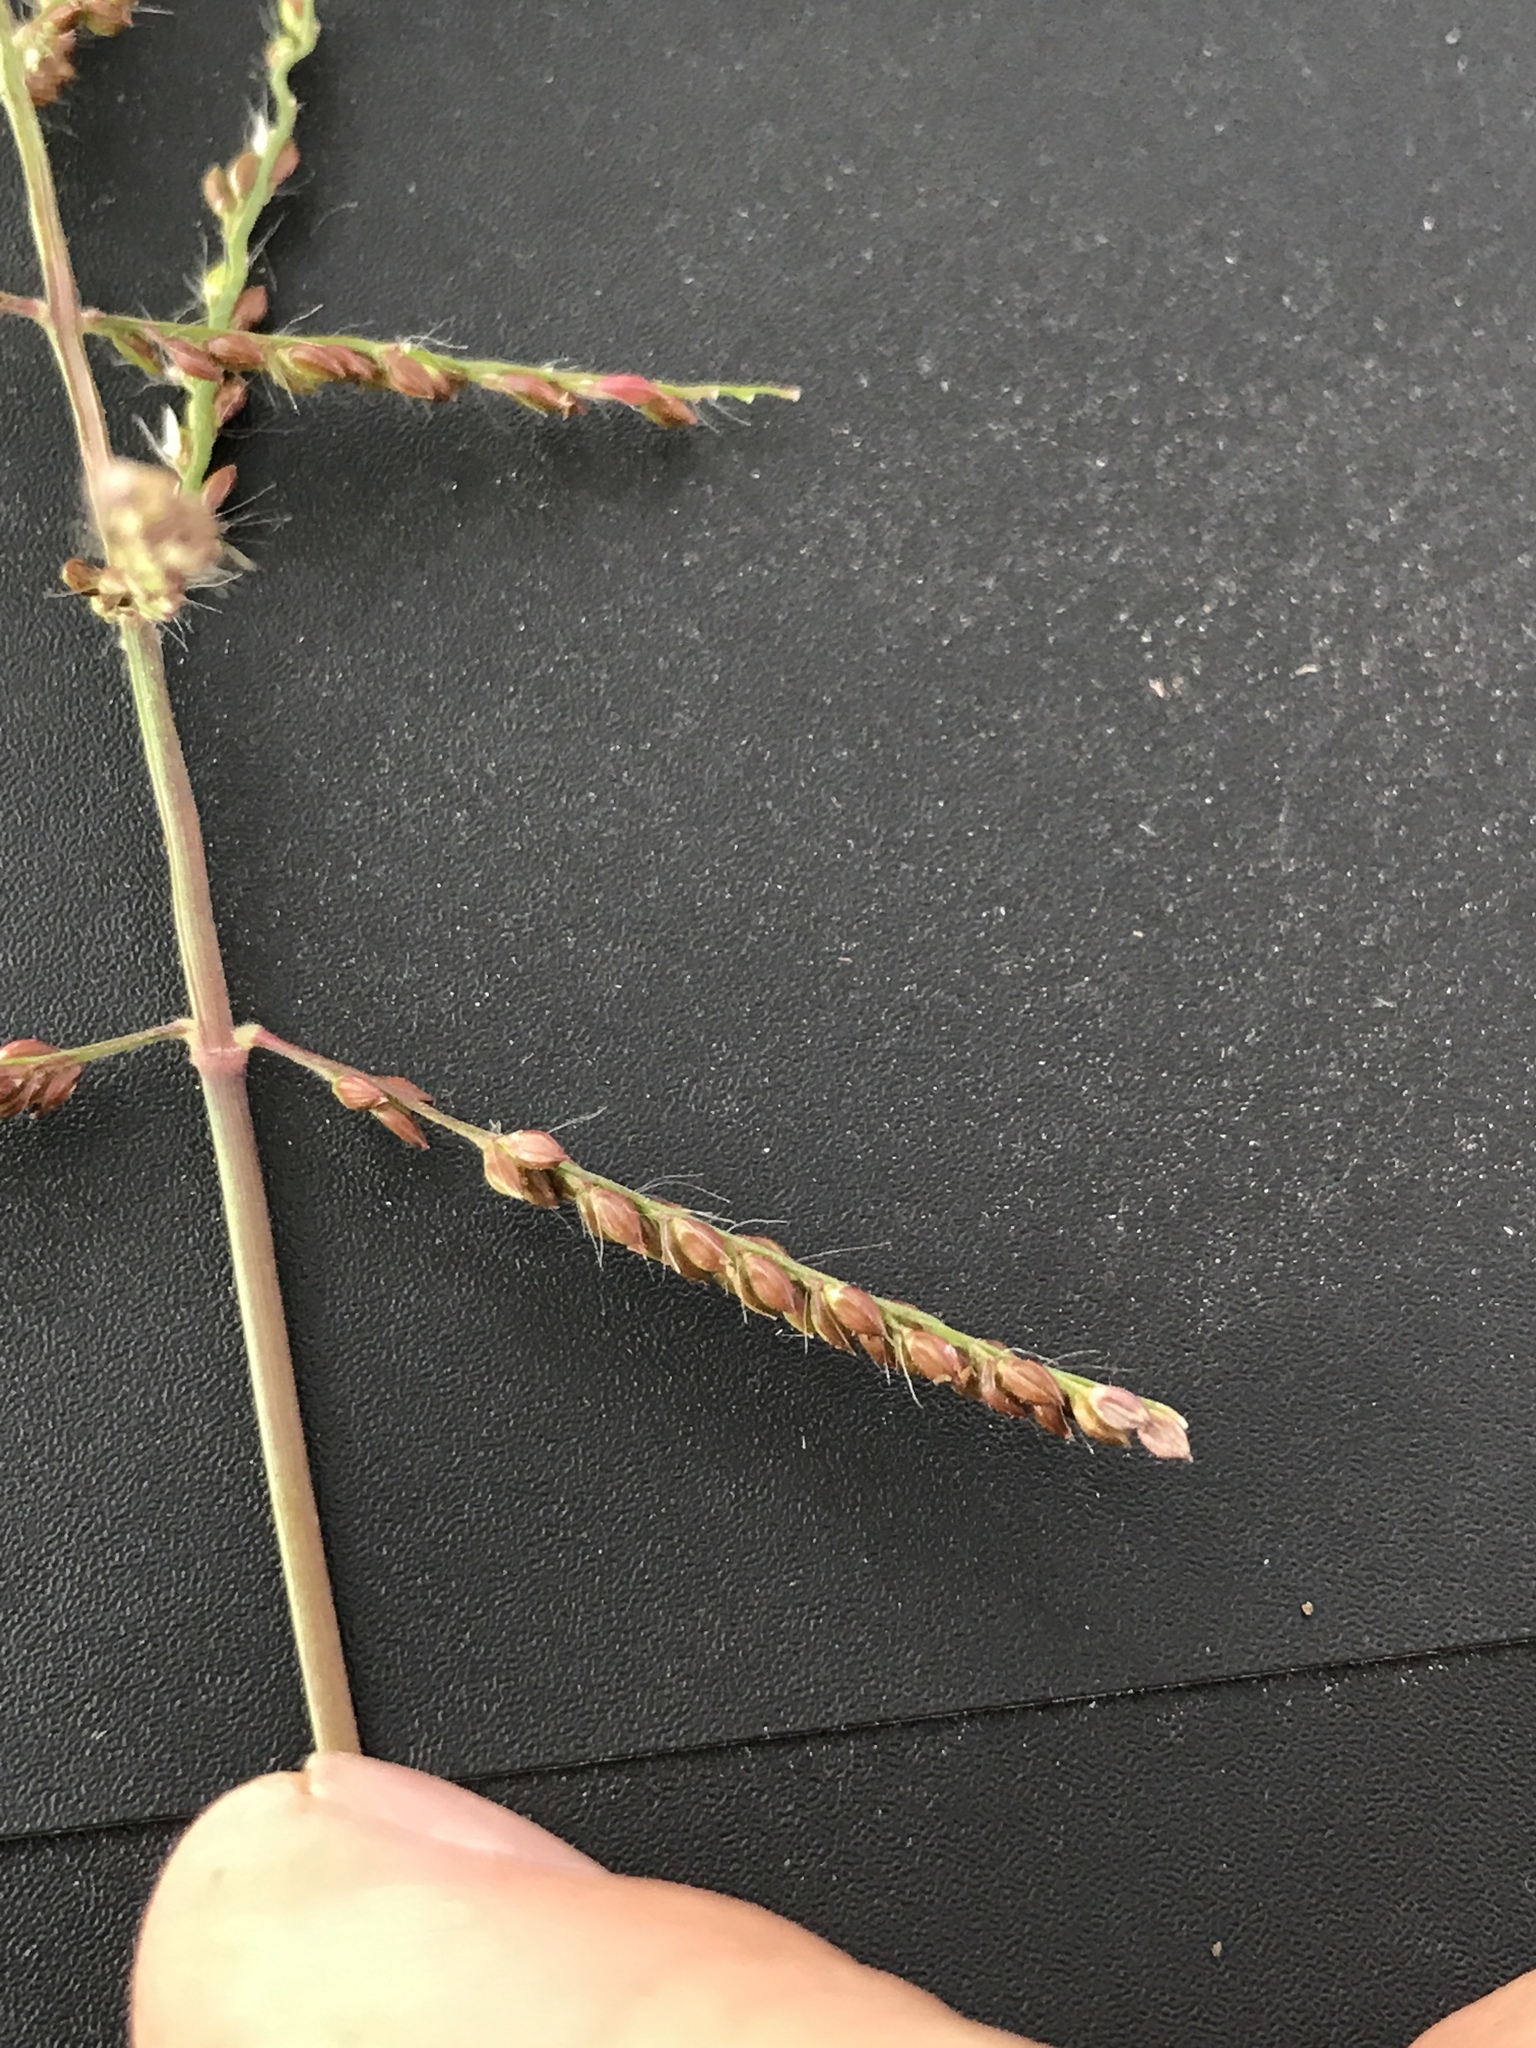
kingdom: Plantae
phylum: Tracheophyta
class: Liliopsida
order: Poales
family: Poaceae
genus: Urochloa
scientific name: Urochloa reptans
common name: Sprawling signalgrass
